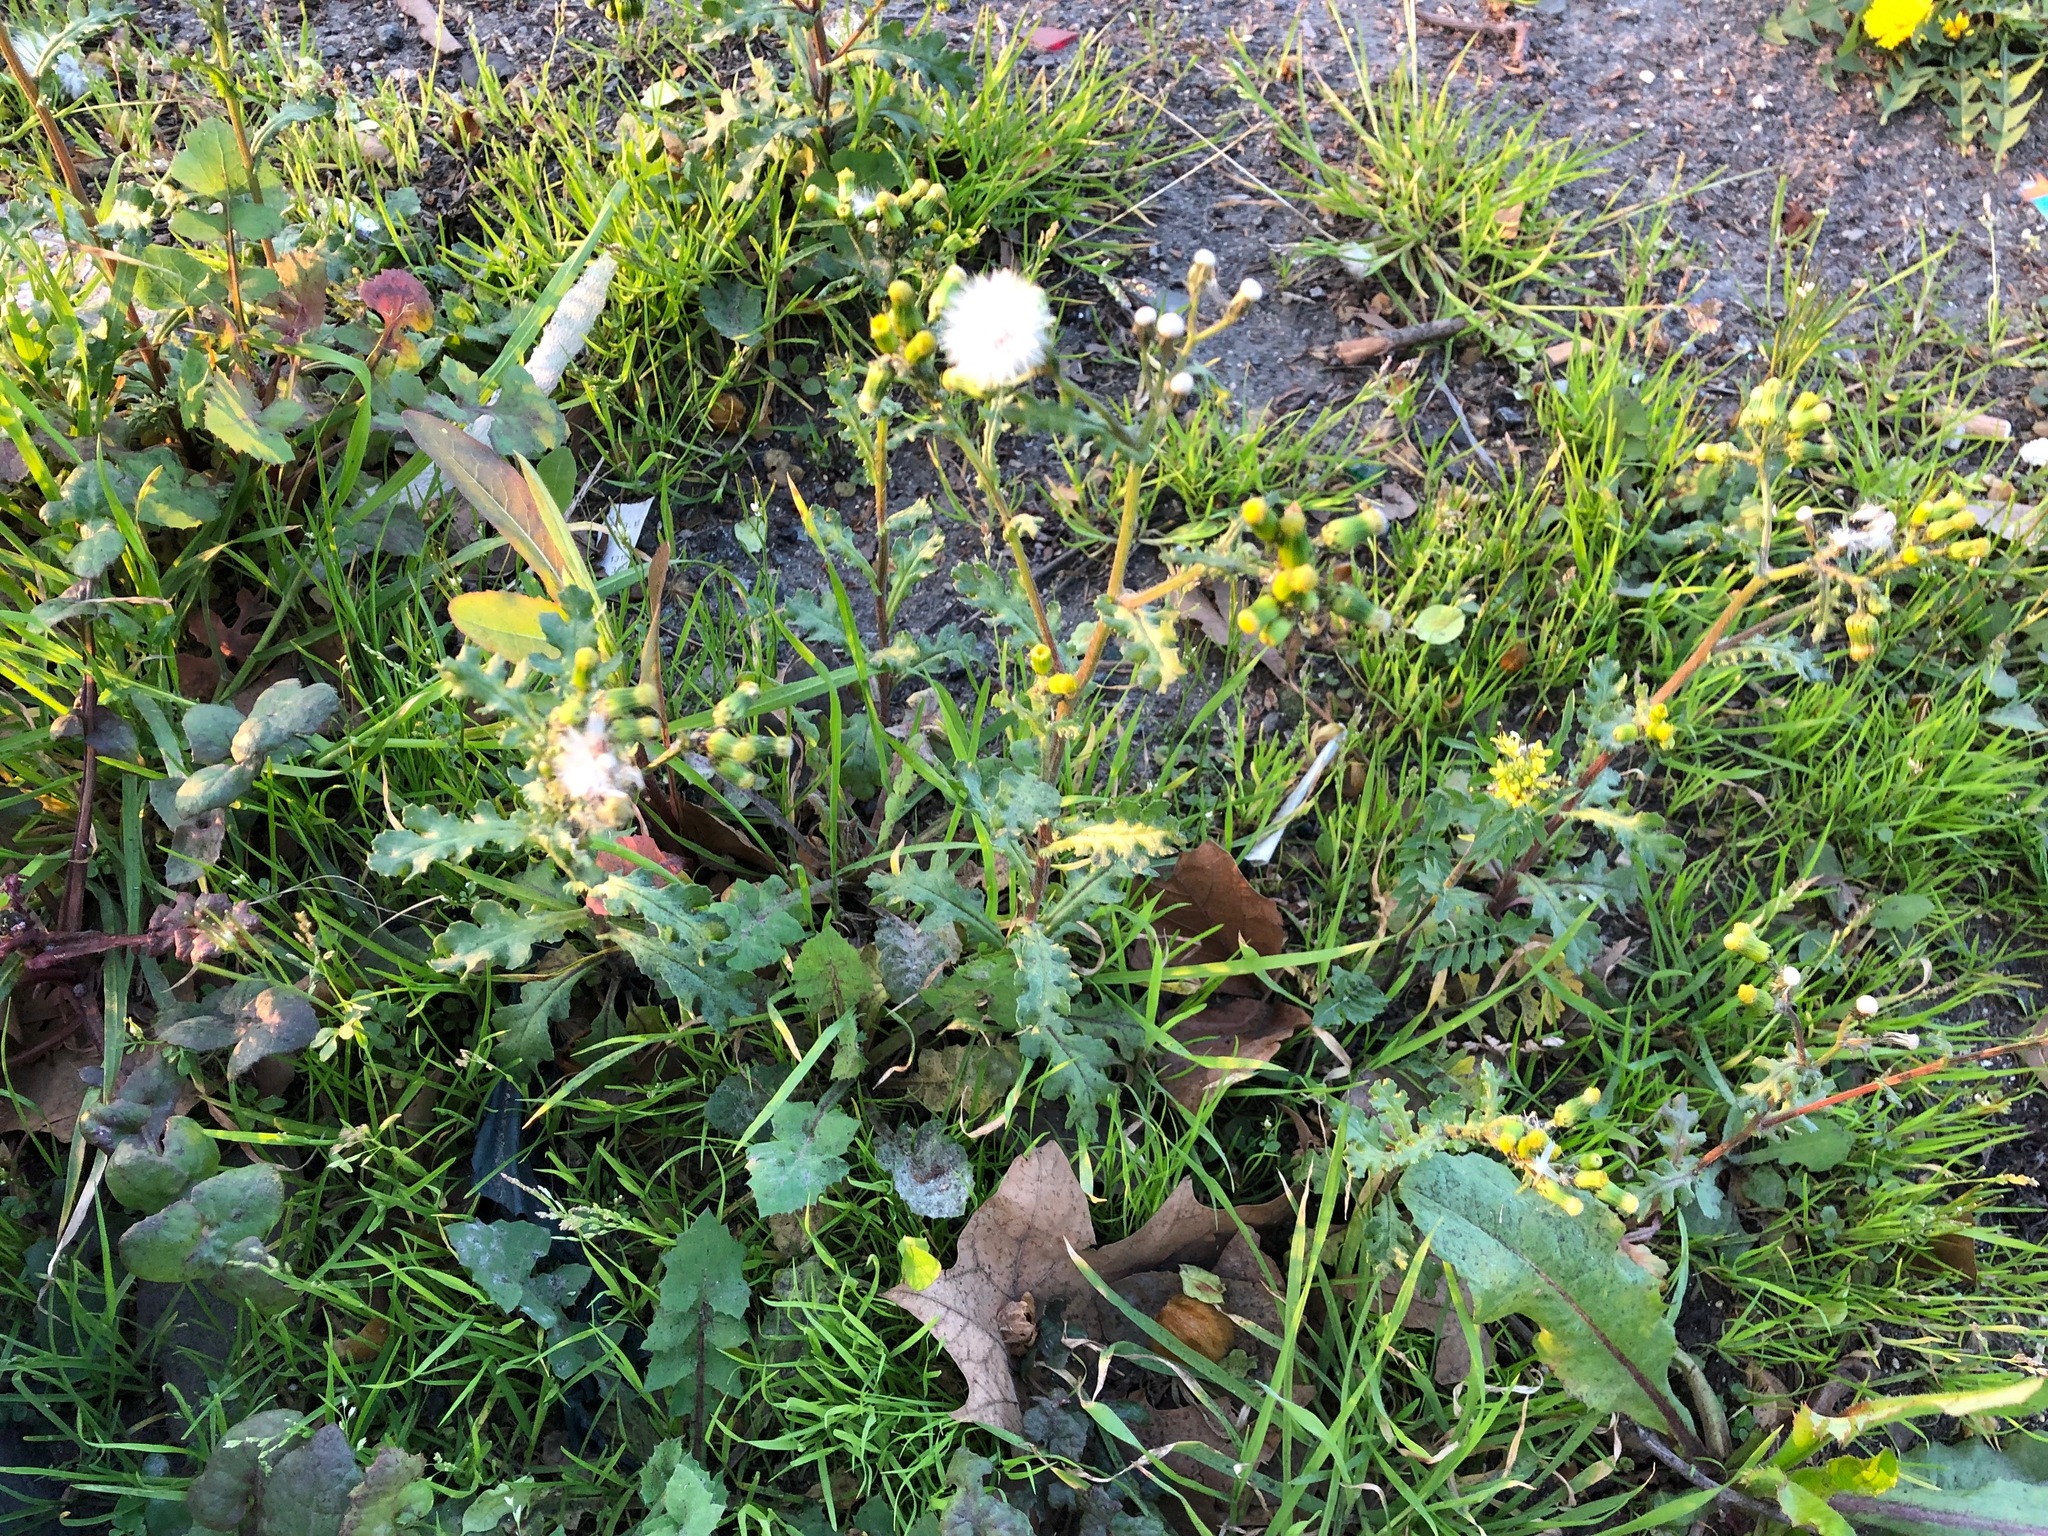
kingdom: Plantae
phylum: Tracheophyta
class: Magnoliopsida
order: Asterales
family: Asteraceae
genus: Senecio
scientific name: Senecio vulgaris
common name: Old-man-in-the-spring
